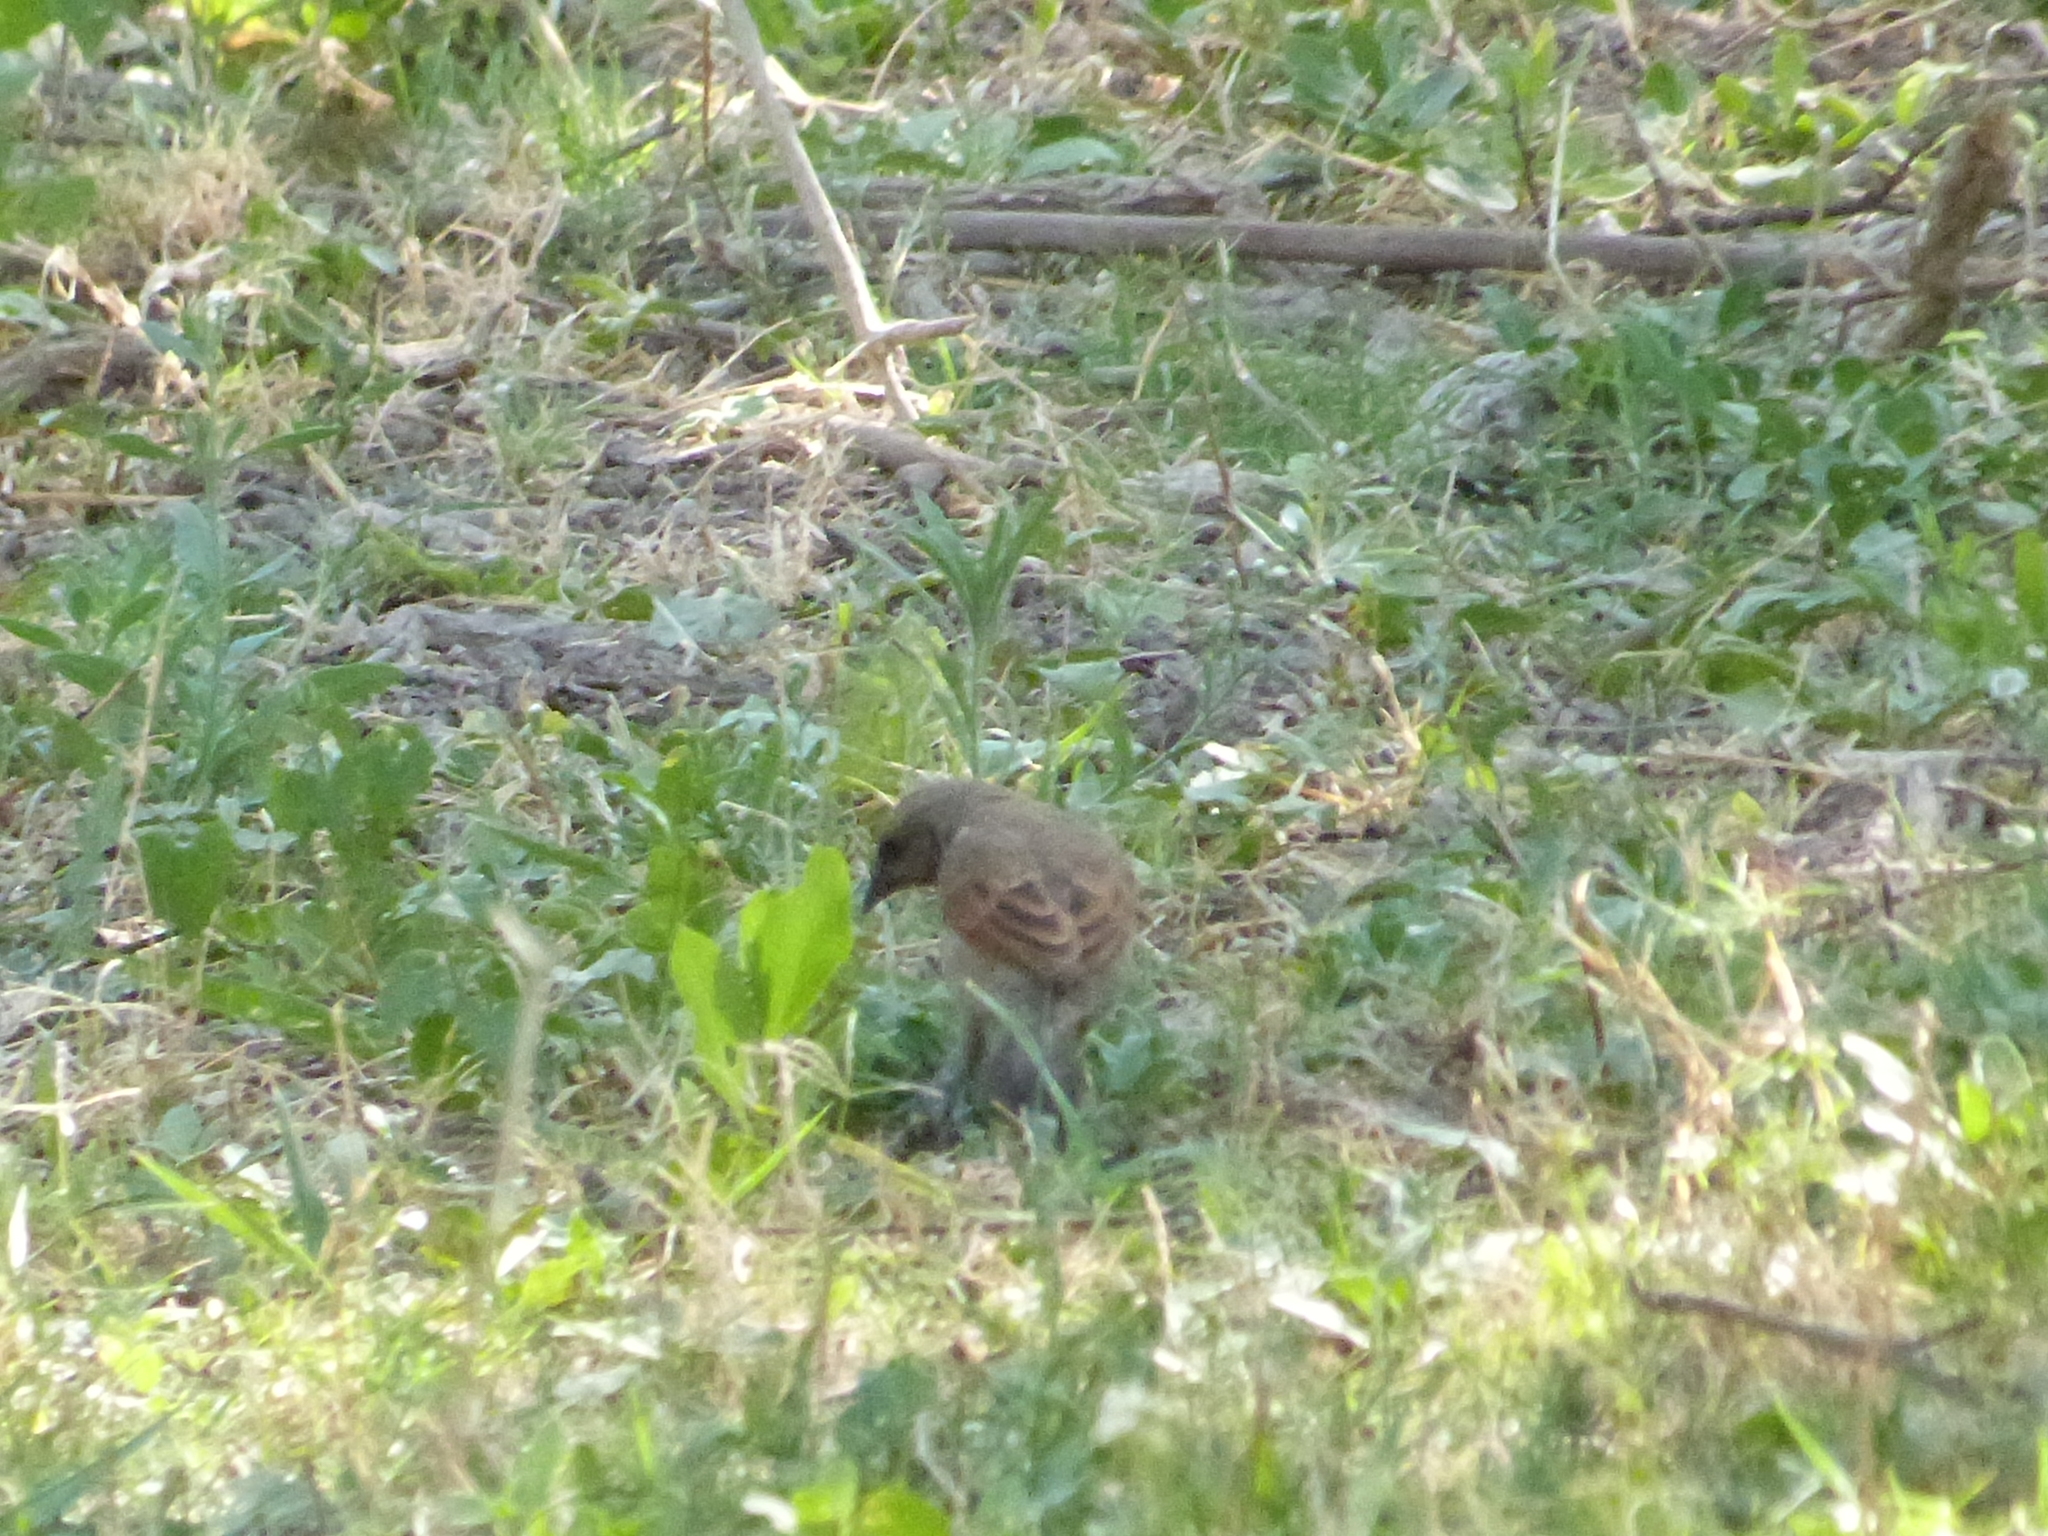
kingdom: Animalia
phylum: Chordata
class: Aves
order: Passeriformes
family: Icteridae
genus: Agelaioides
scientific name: Agelaioides badius
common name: Baywing
